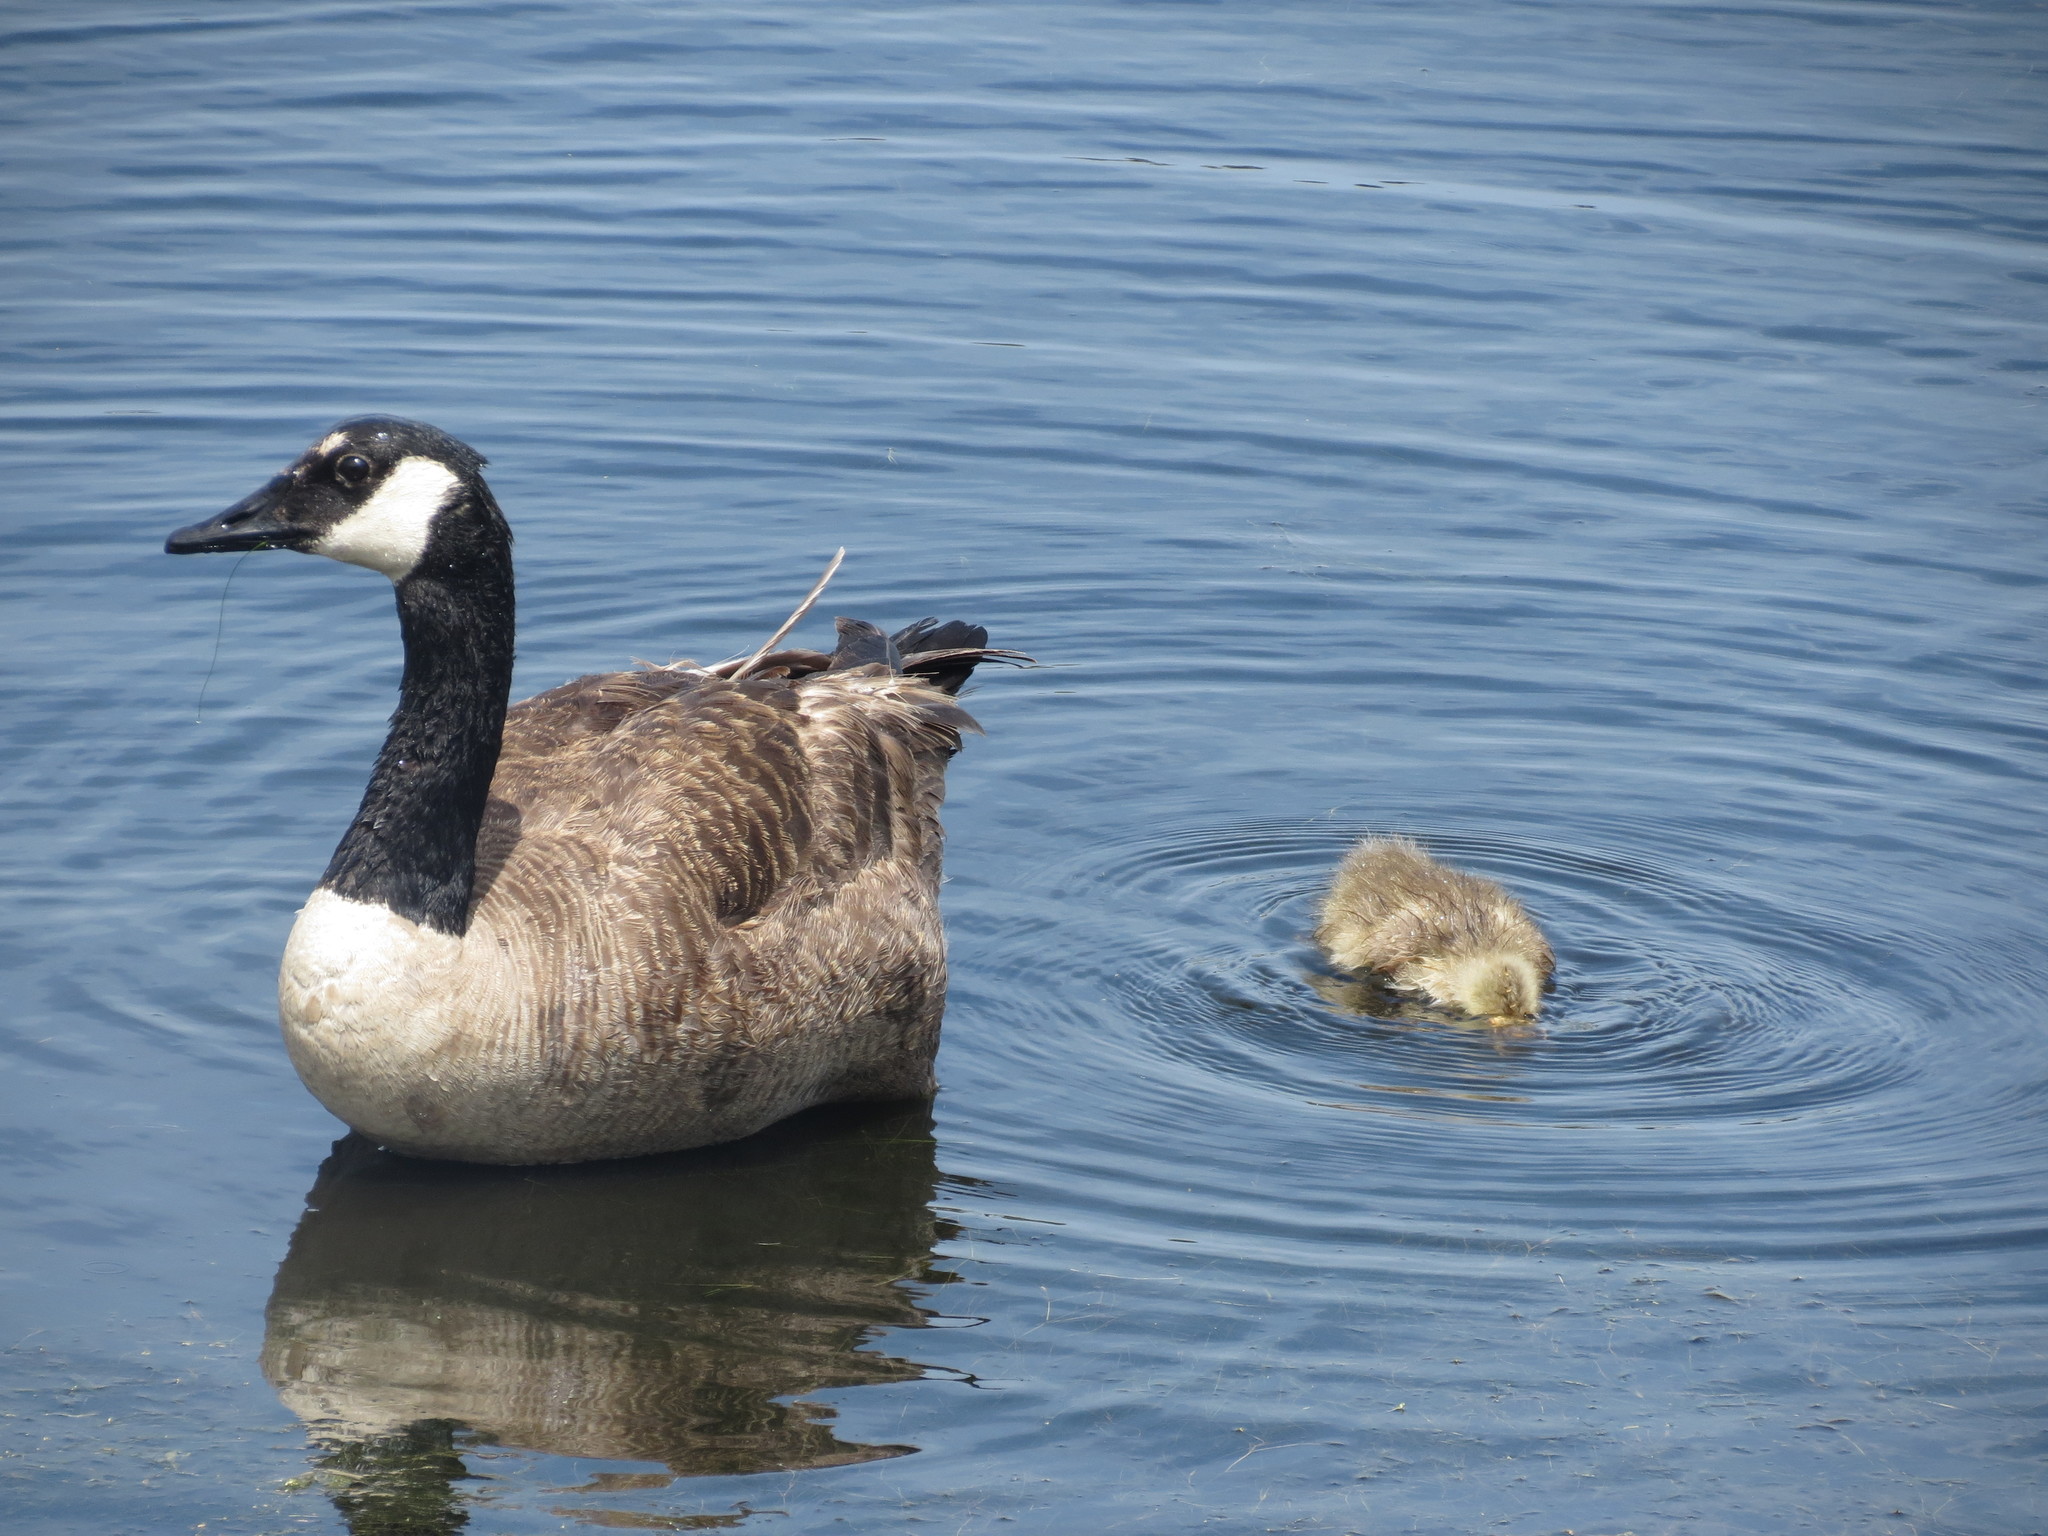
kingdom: Animalia
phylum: Chordata
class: Aves
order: Anseriformes
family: Anatidae
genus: Branta
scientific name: Branta canadensis
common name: Canada goose
